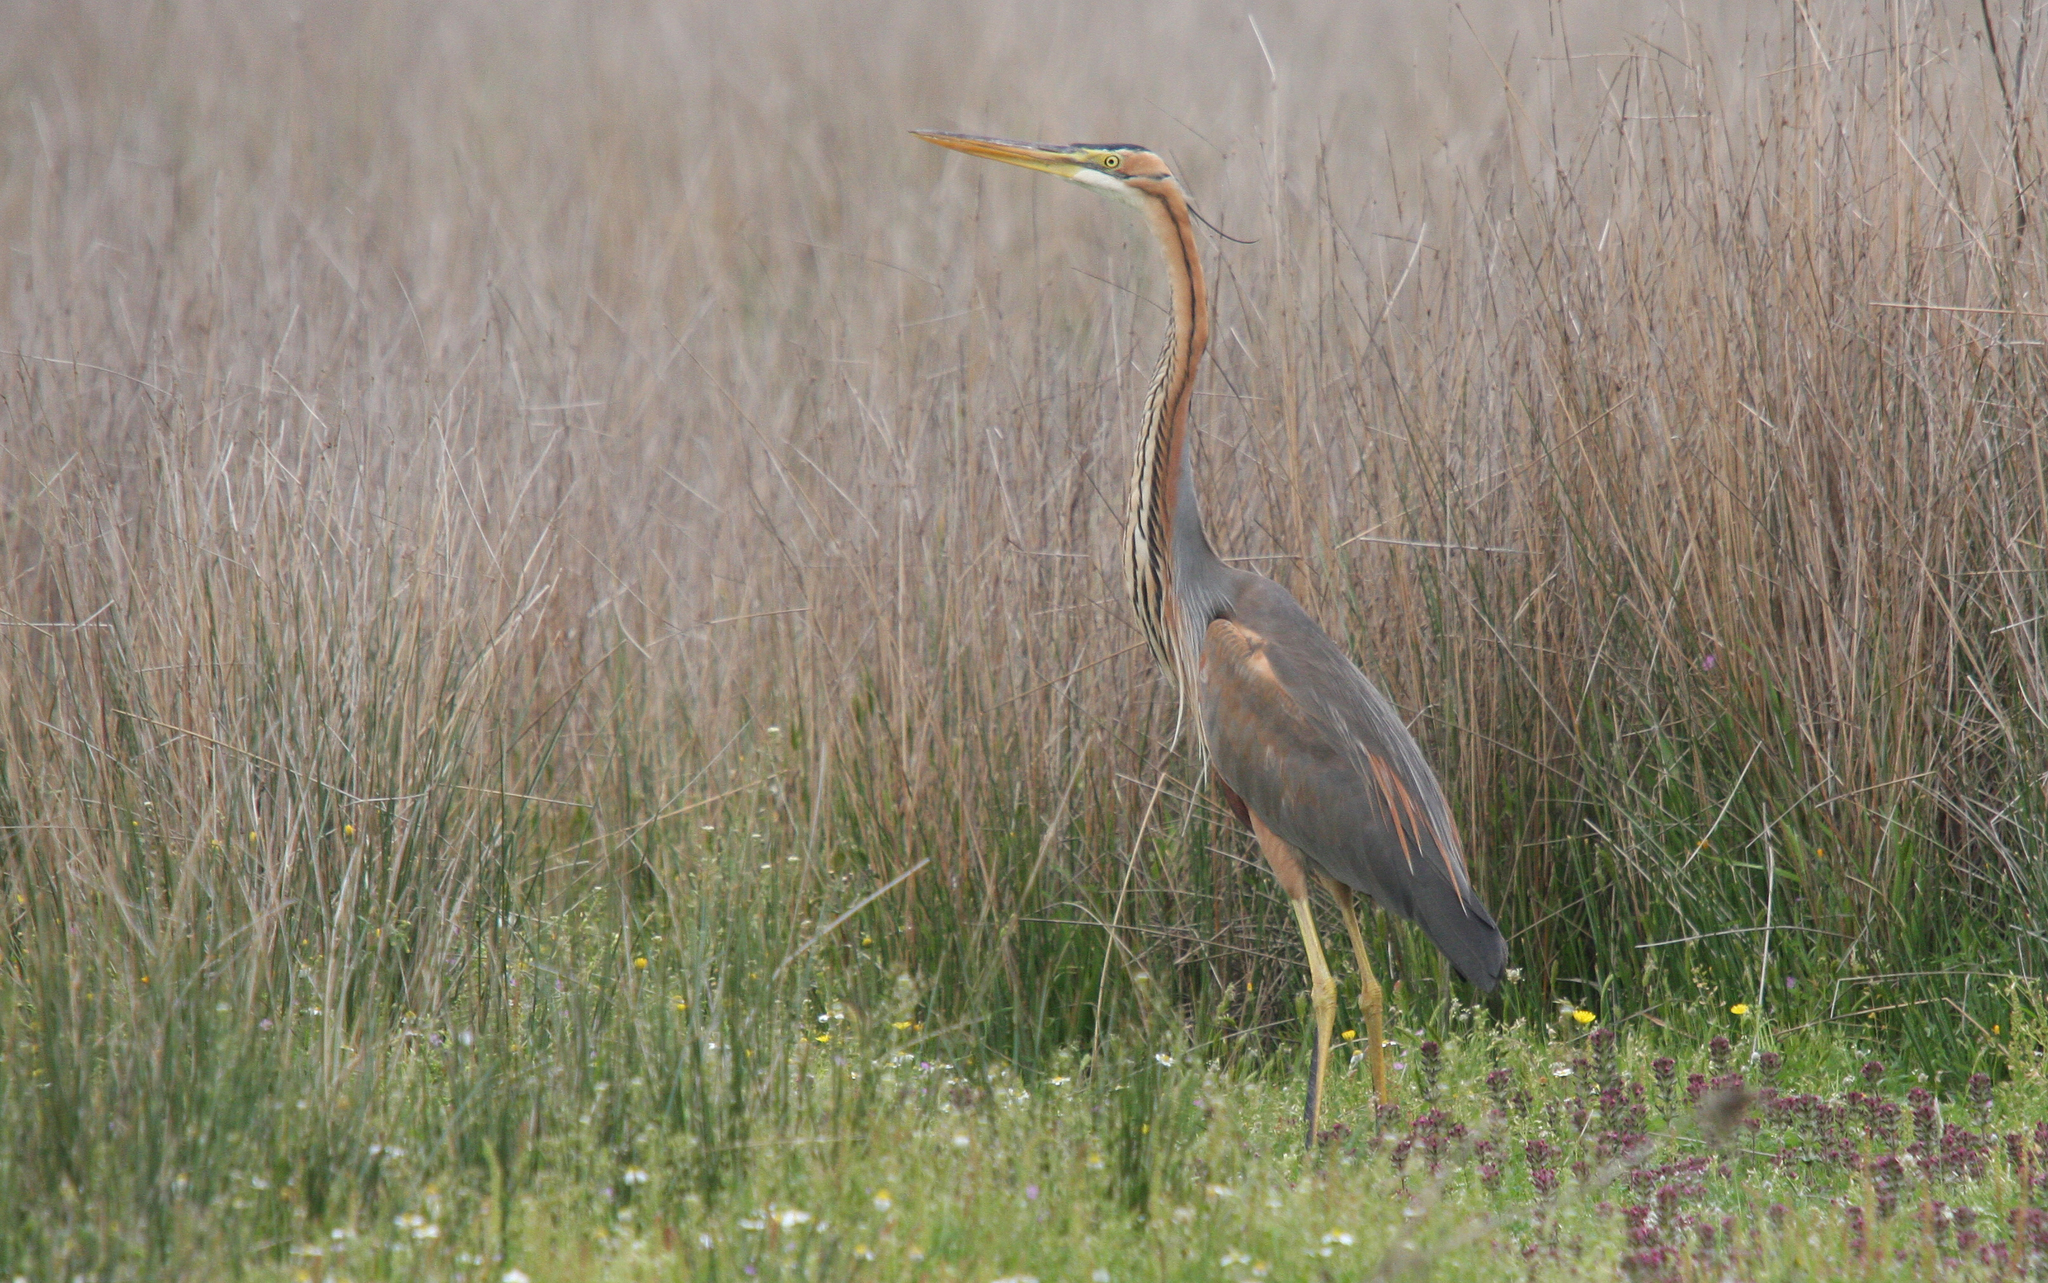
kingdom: Animalia
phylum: Chordata
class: Aves
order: Pelecaniformes
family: Ardeidae
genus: Ardea
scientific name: Ardea purpurea
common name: Purple heron
